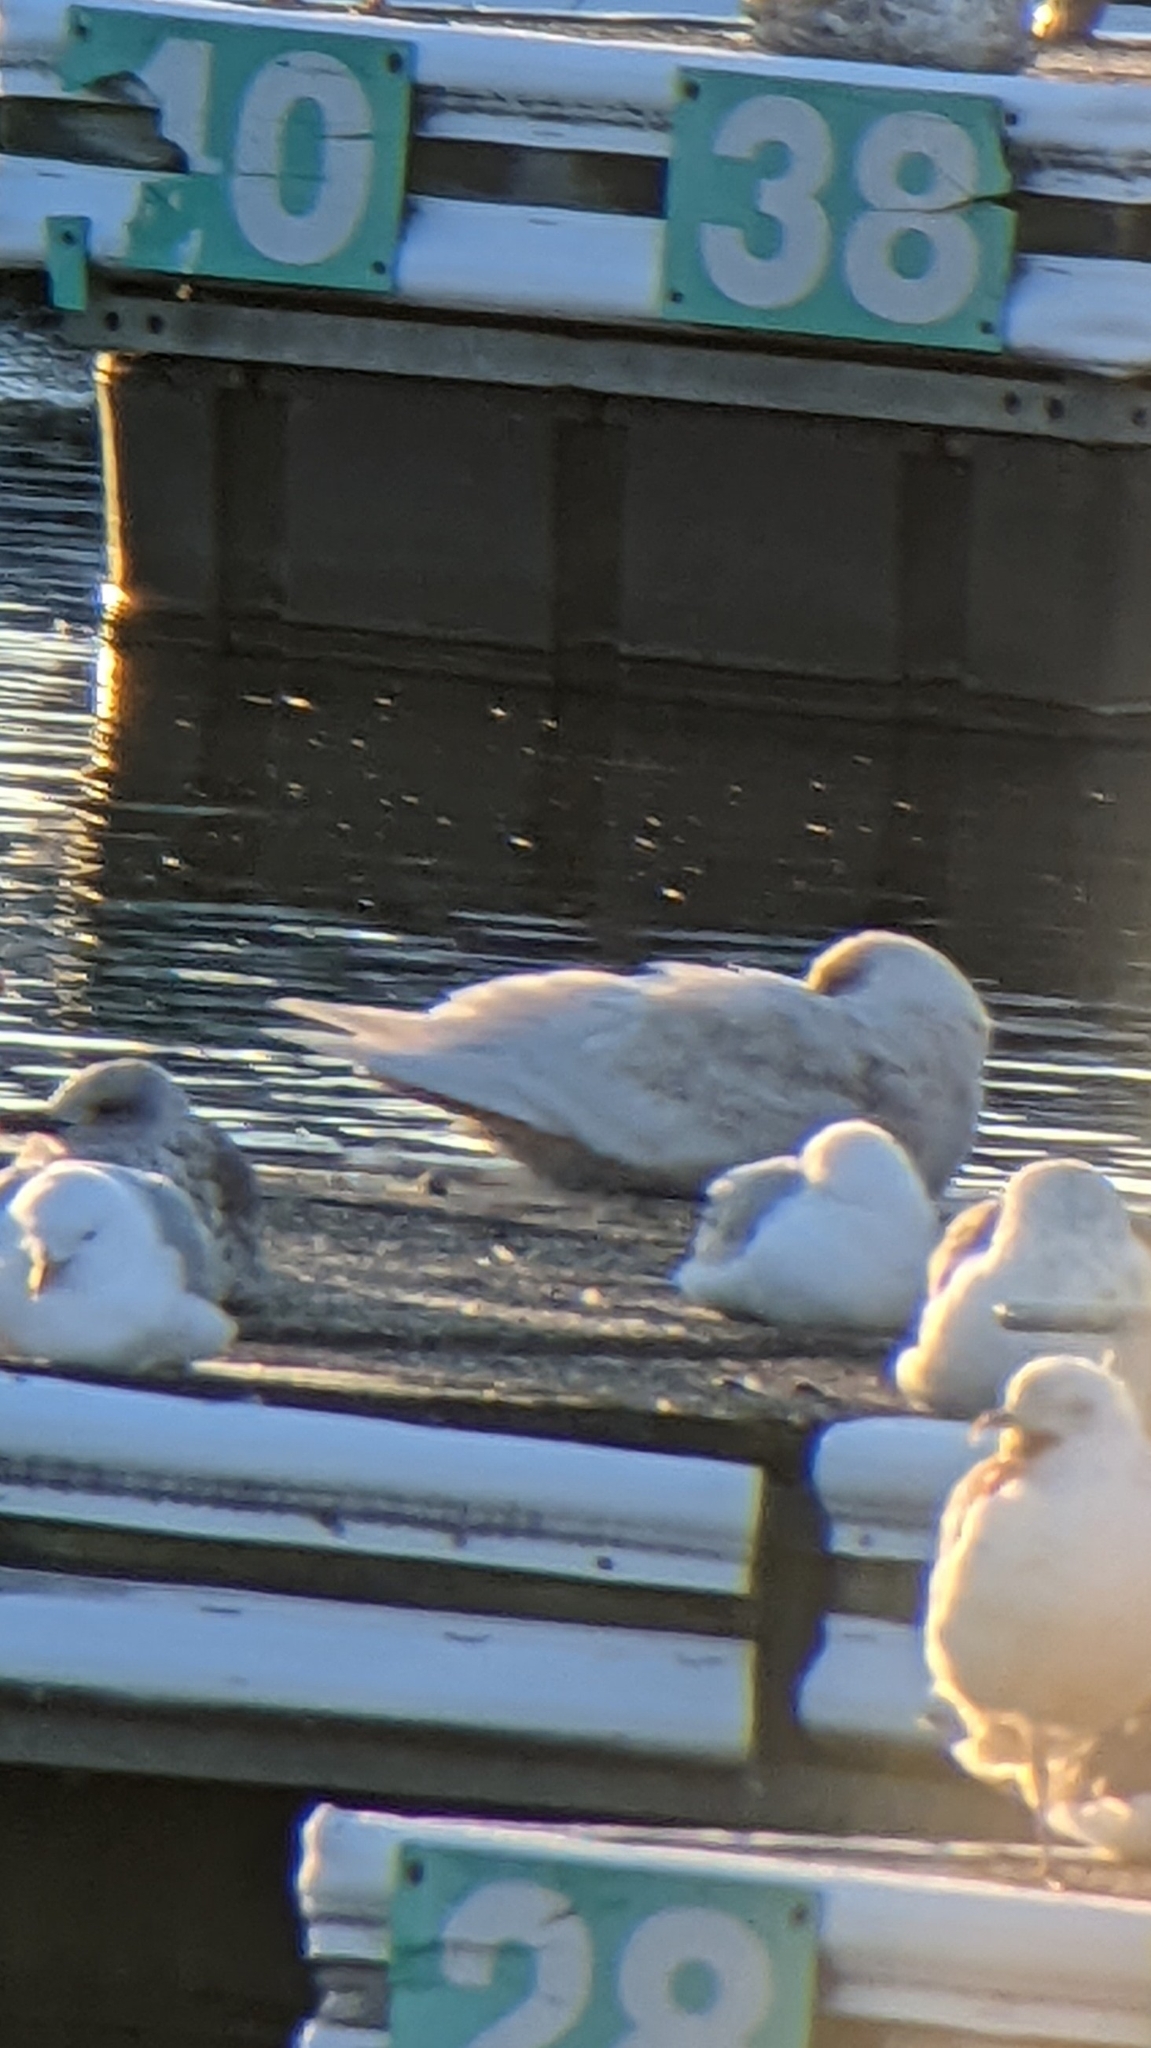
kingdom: Animalia
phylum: Chordata
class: Aves
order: Charadriiformes
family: Laridae
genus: Larus
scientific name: Larus glaucoides
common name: Iceland gull
